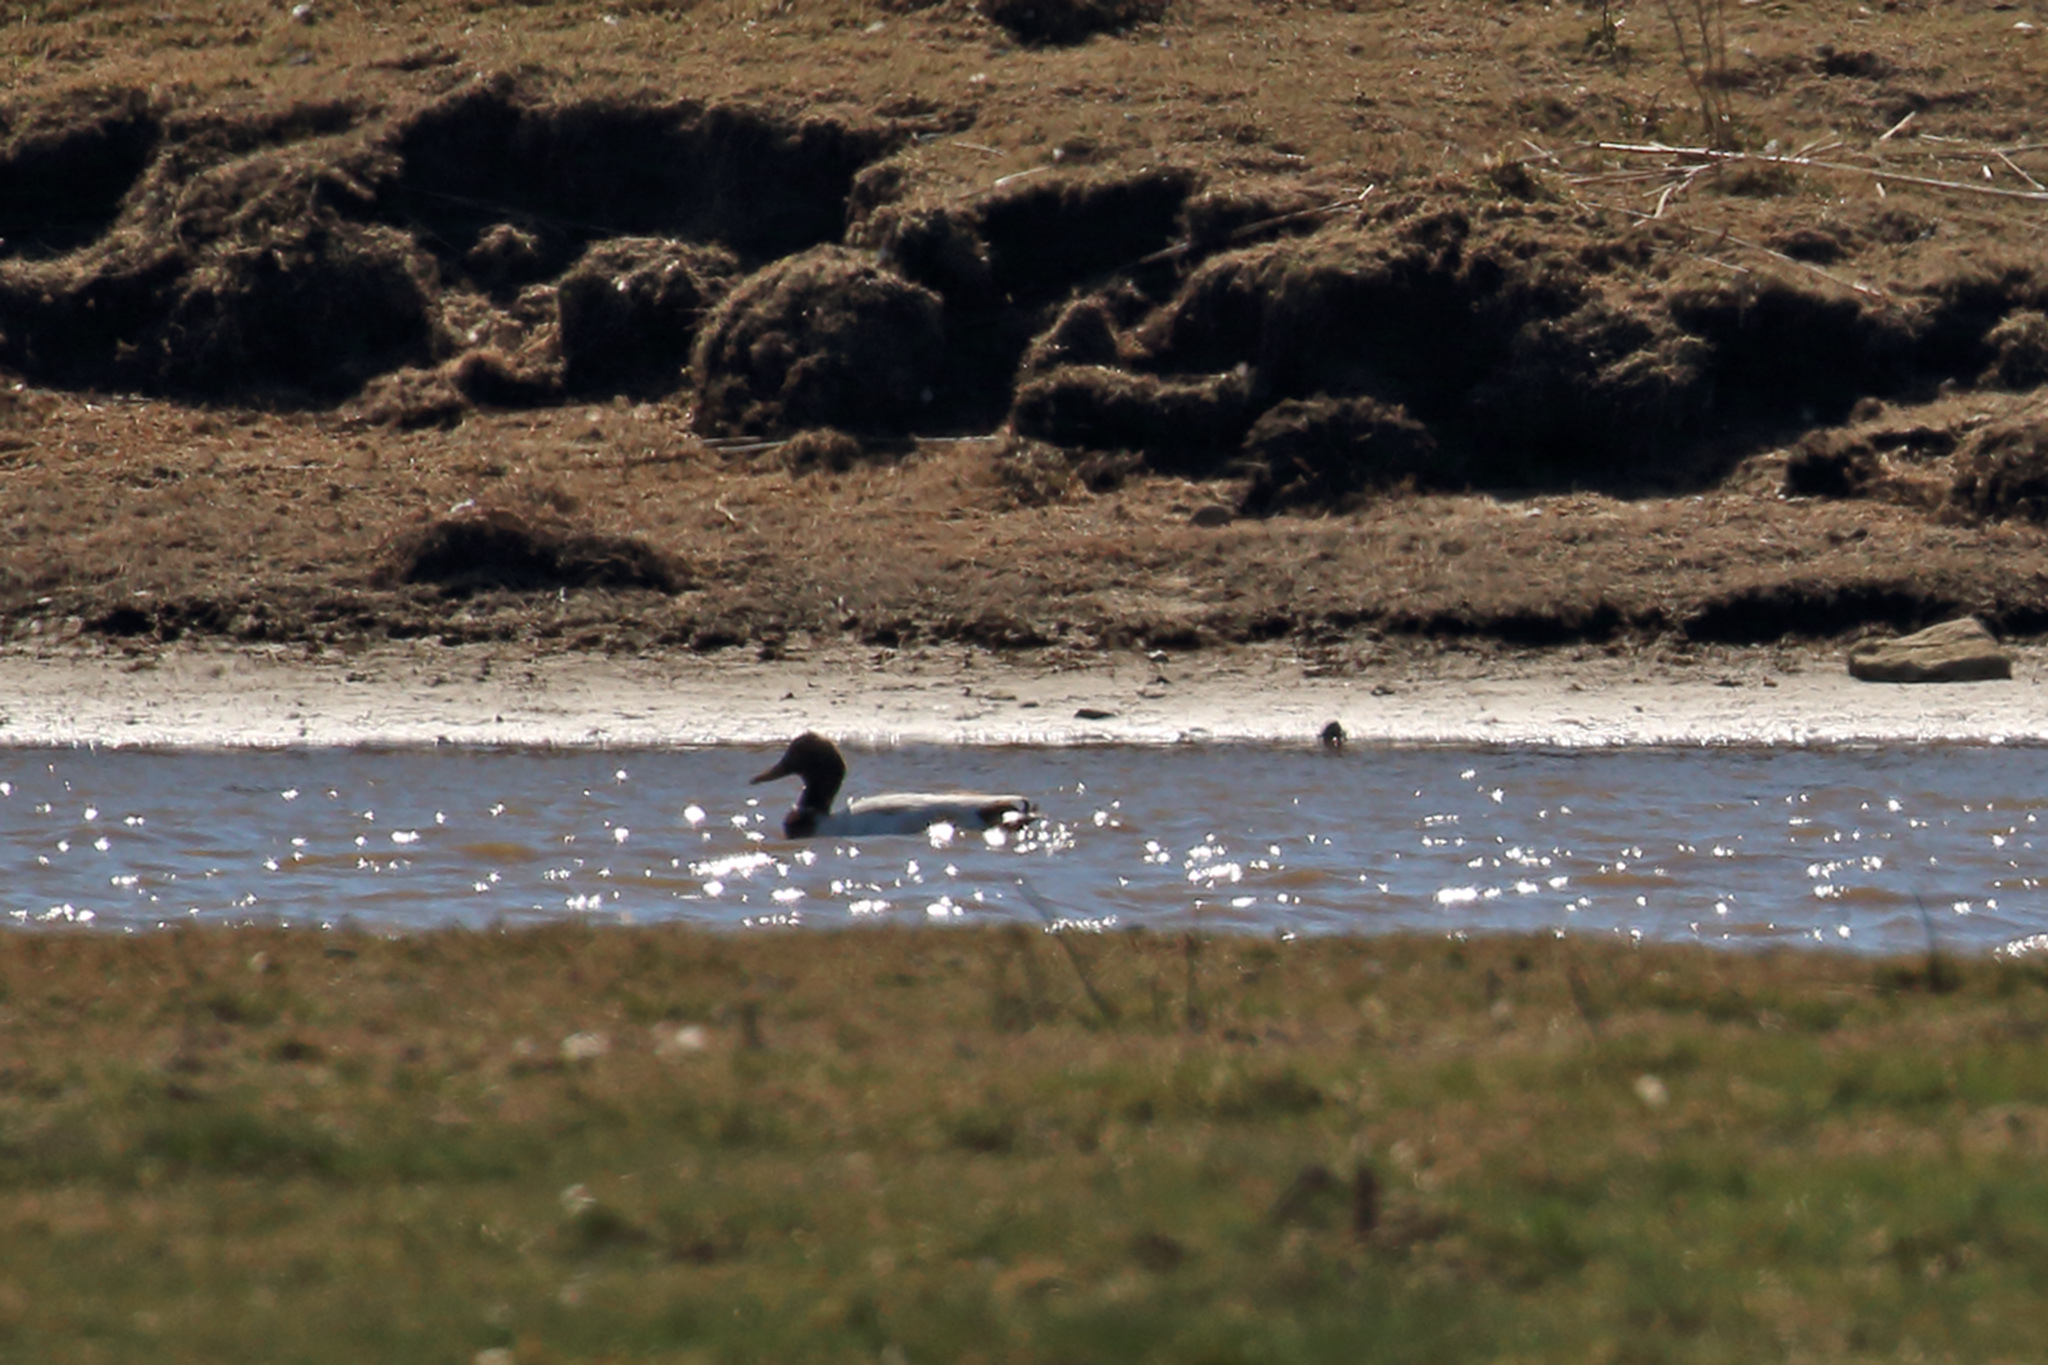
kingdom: Animalia
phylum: Chordata
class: Aves
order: Anseriformes
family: Anatidae
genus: Anas
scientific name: Anas platyrhynchos
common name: Mallard
